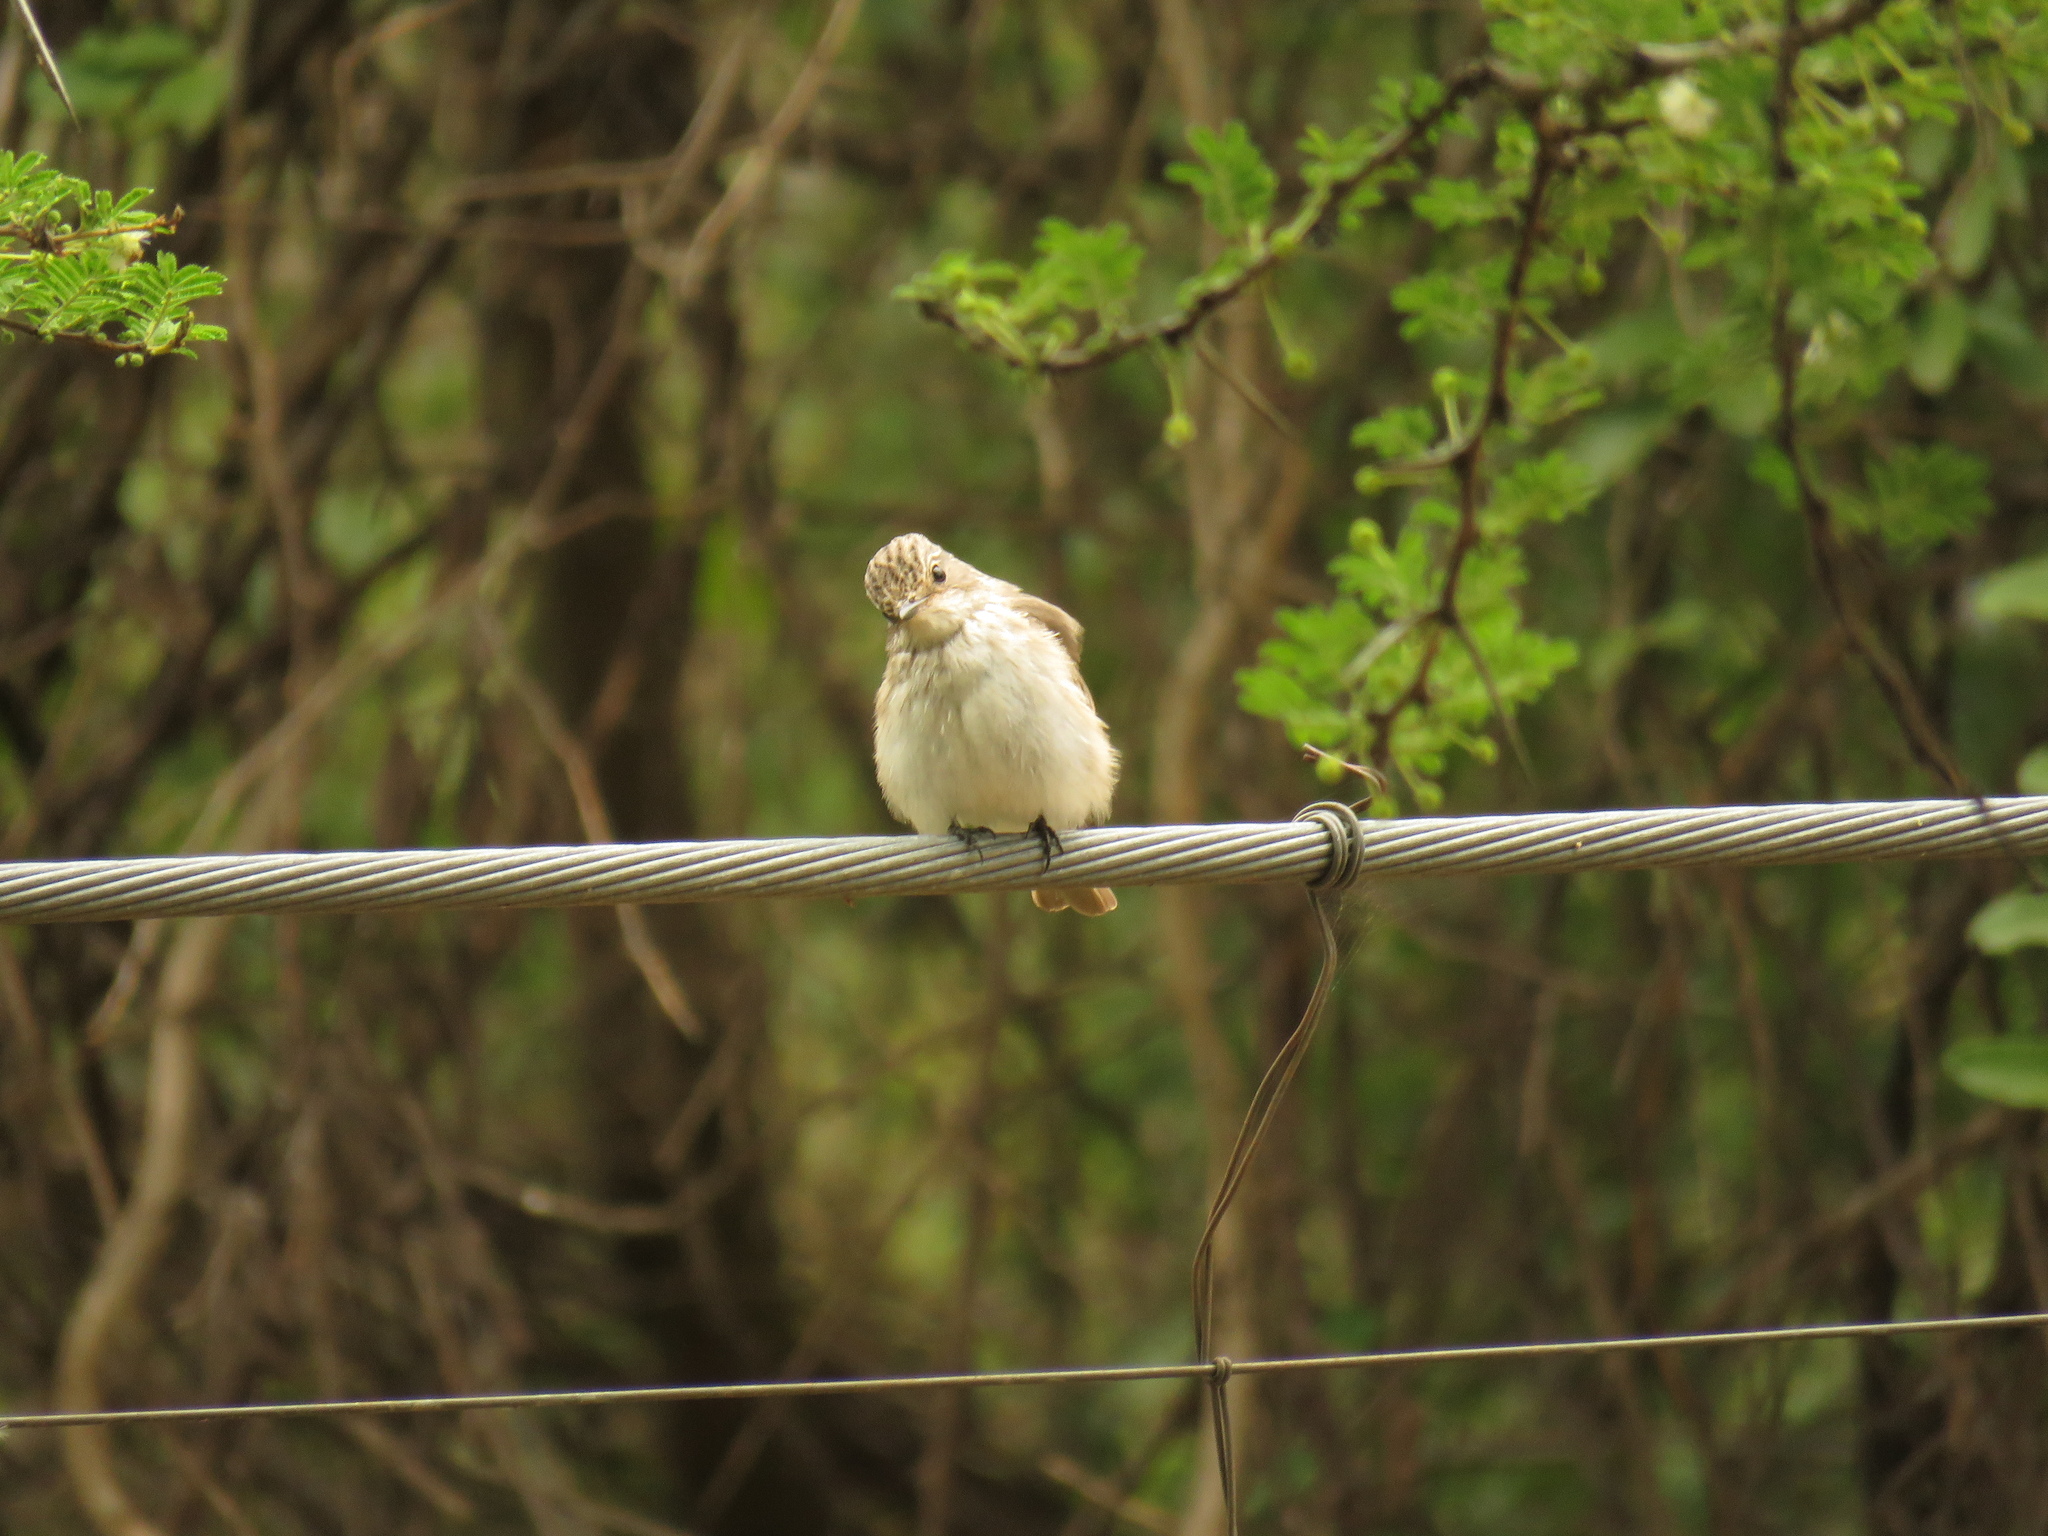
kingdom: Animalia
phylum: Chordata
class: Aves
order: Passeriformes
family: Muscicapidae
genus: Muscicapa
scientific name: Muscicapa striata
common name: Spotted flycatcher
